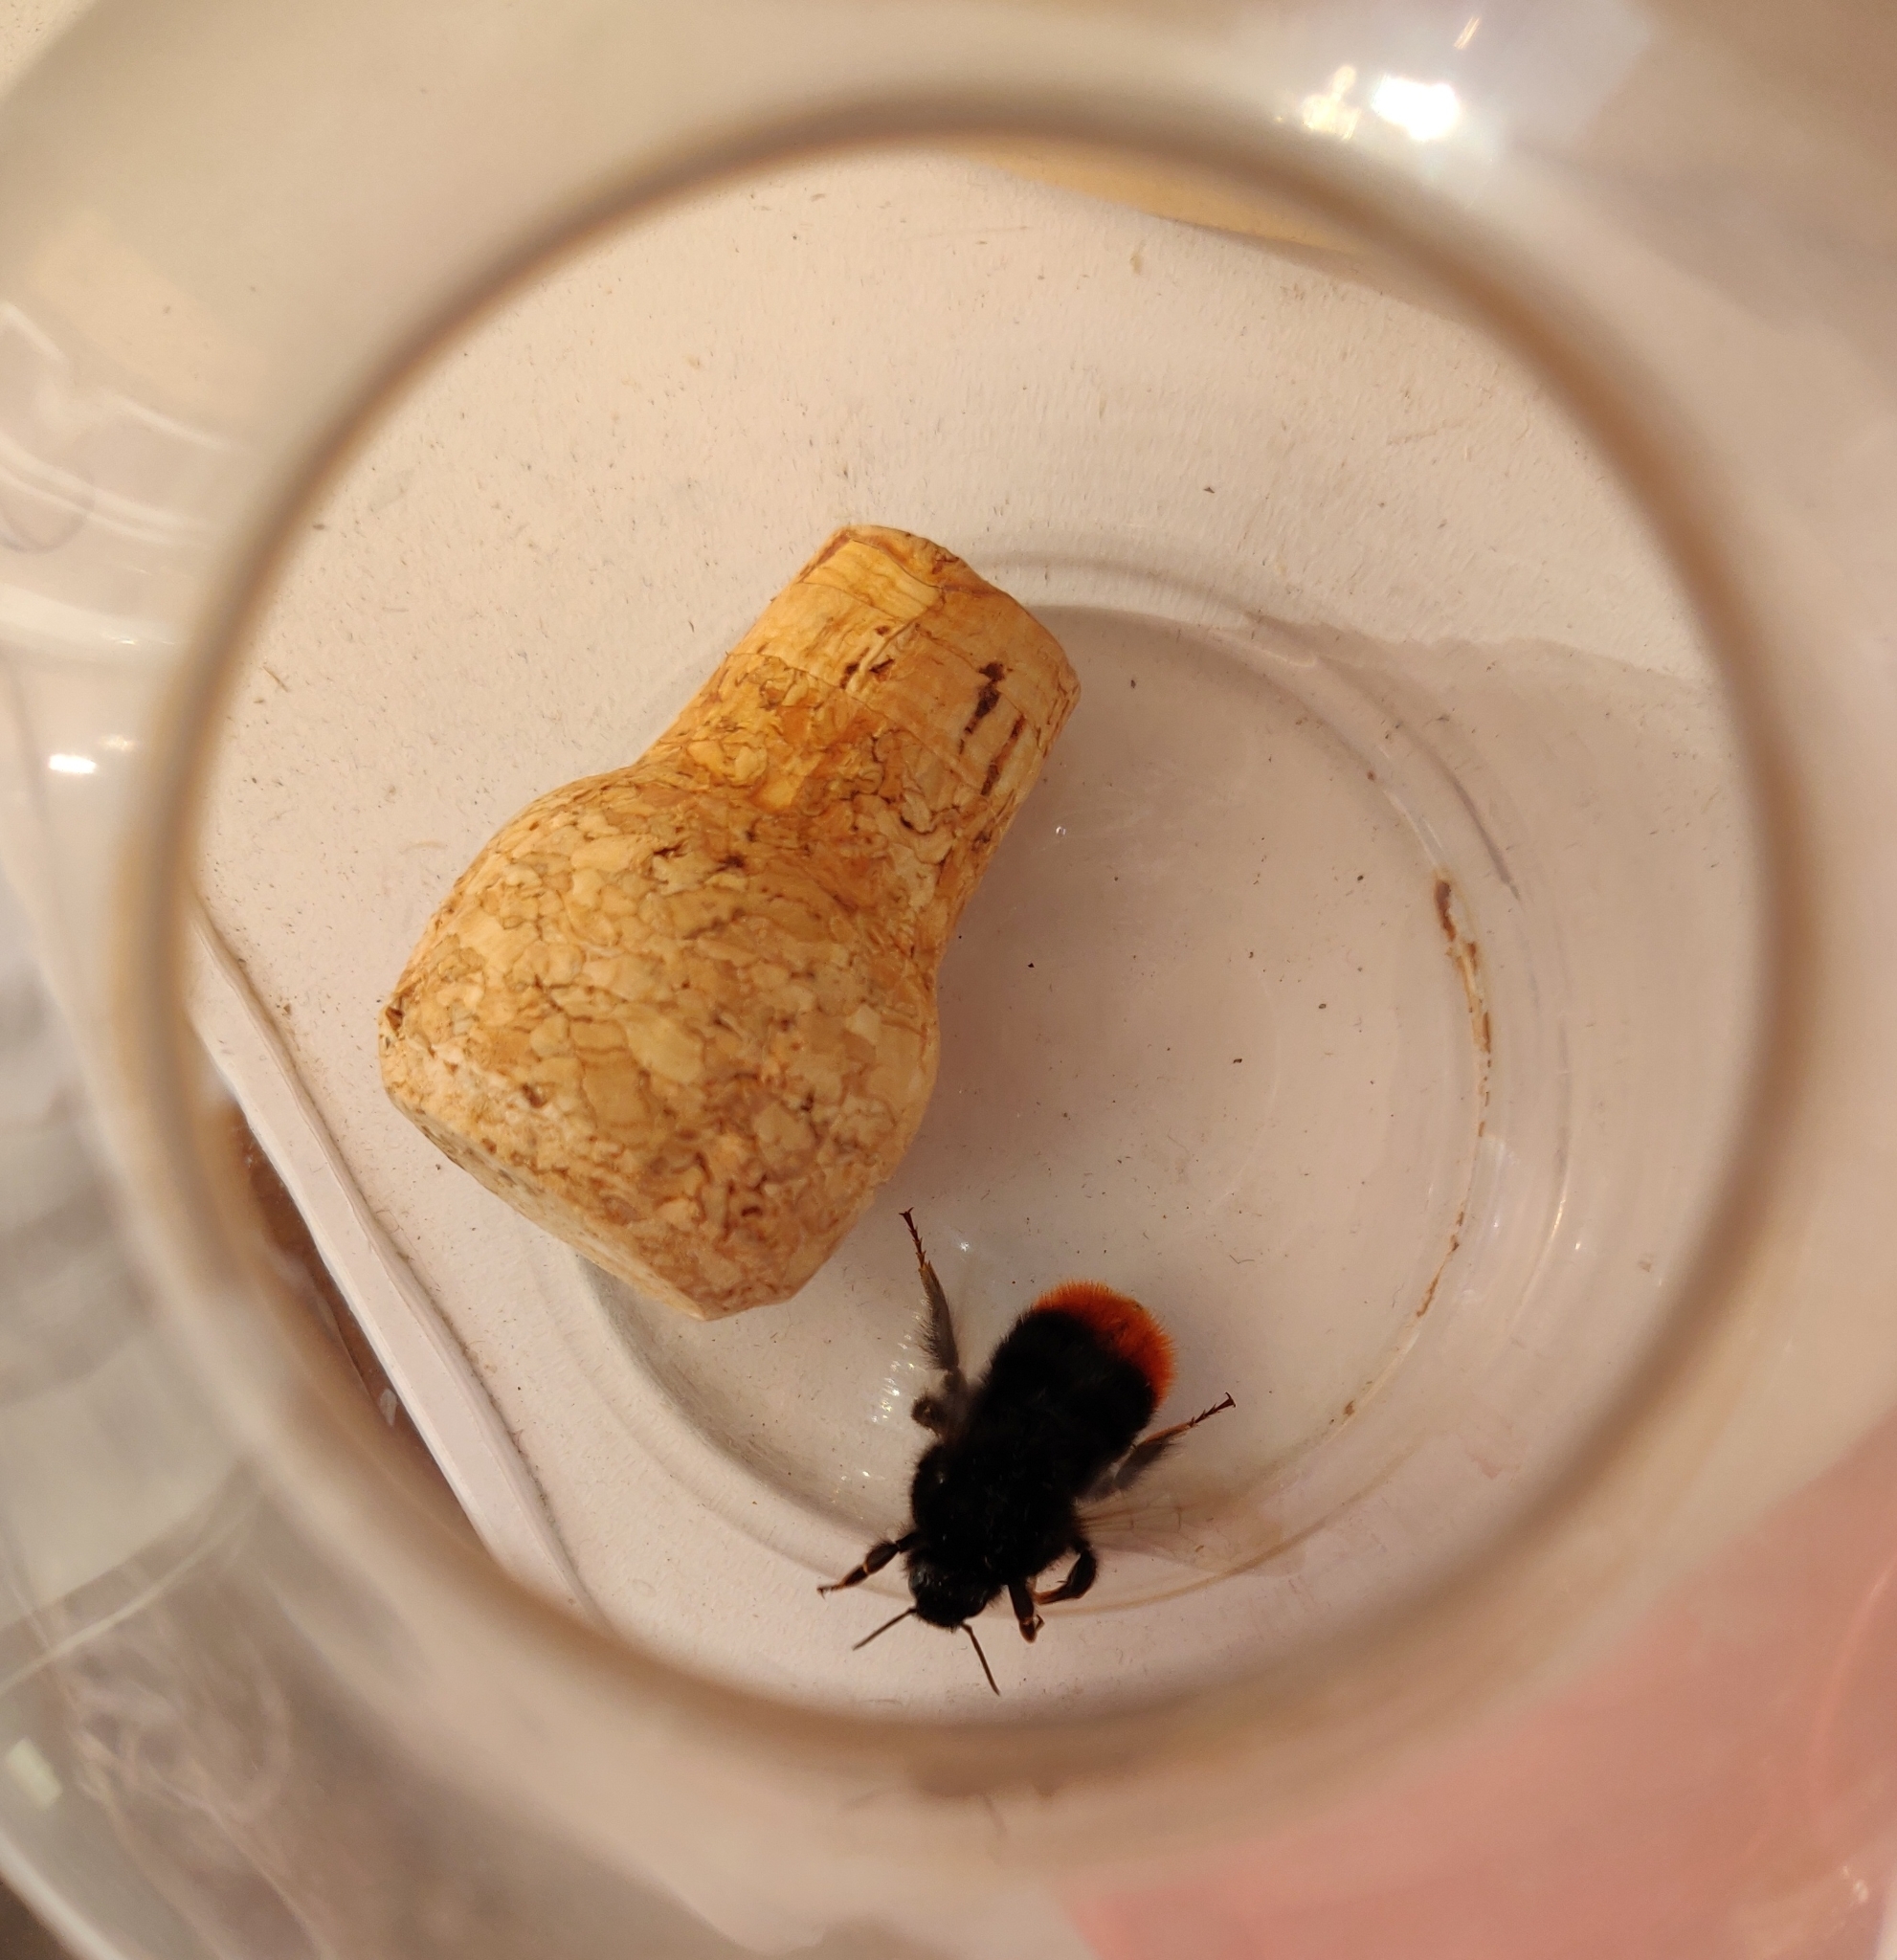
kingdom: Animalia
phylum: Arthropoda
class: Insecta
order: Hymenoptera
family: Apidae
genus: Bombus
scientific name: Bombus lapidarius
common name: Large red-tailed humble-bee
